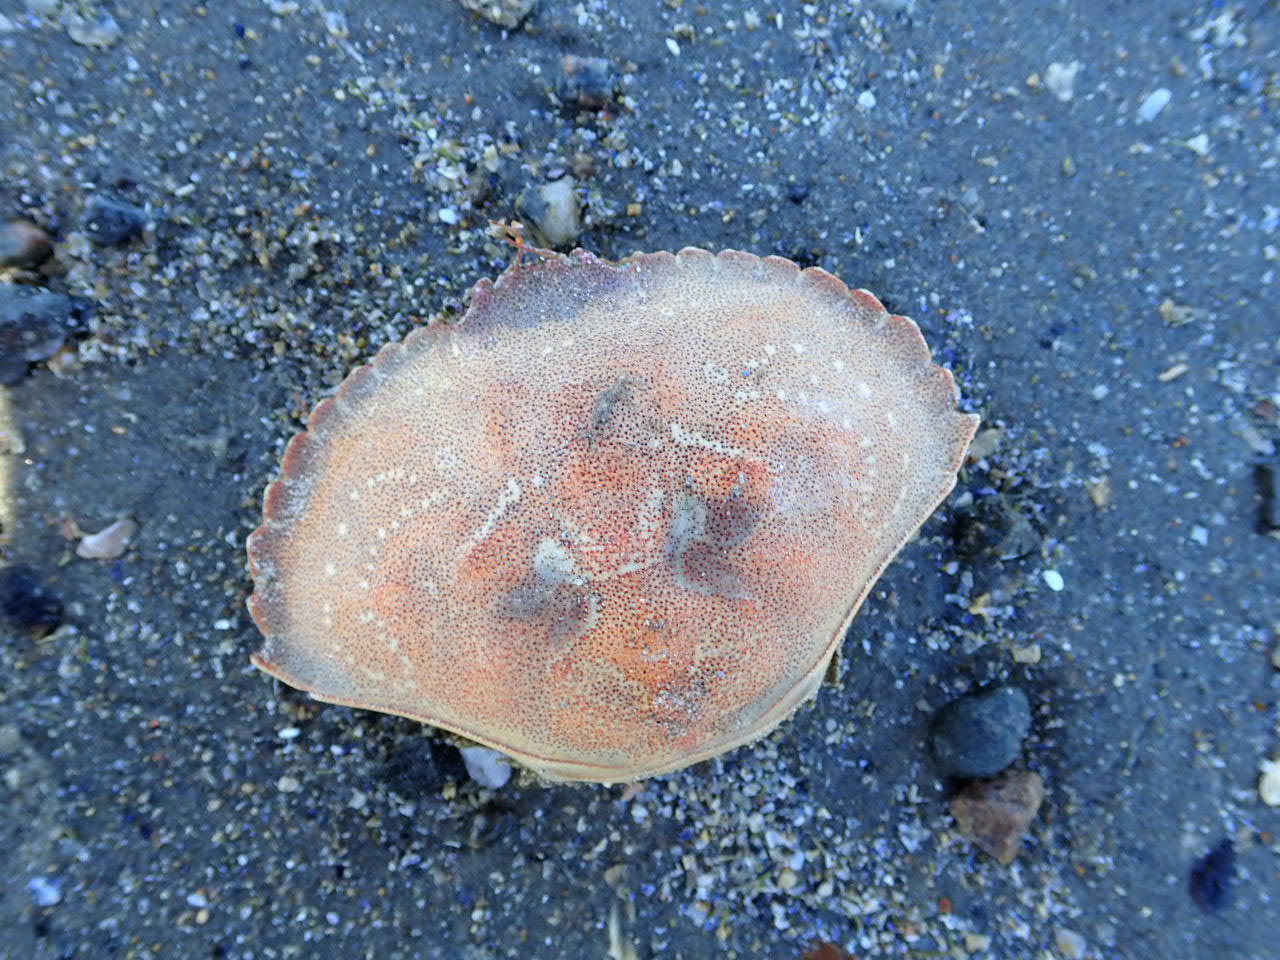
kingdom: Animalia
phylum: Arthropoda
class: Malacostraca
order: Decapoda
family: Cancridae
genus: Cancer
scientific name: Cancer irroratus
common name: Atlantic rock crab
